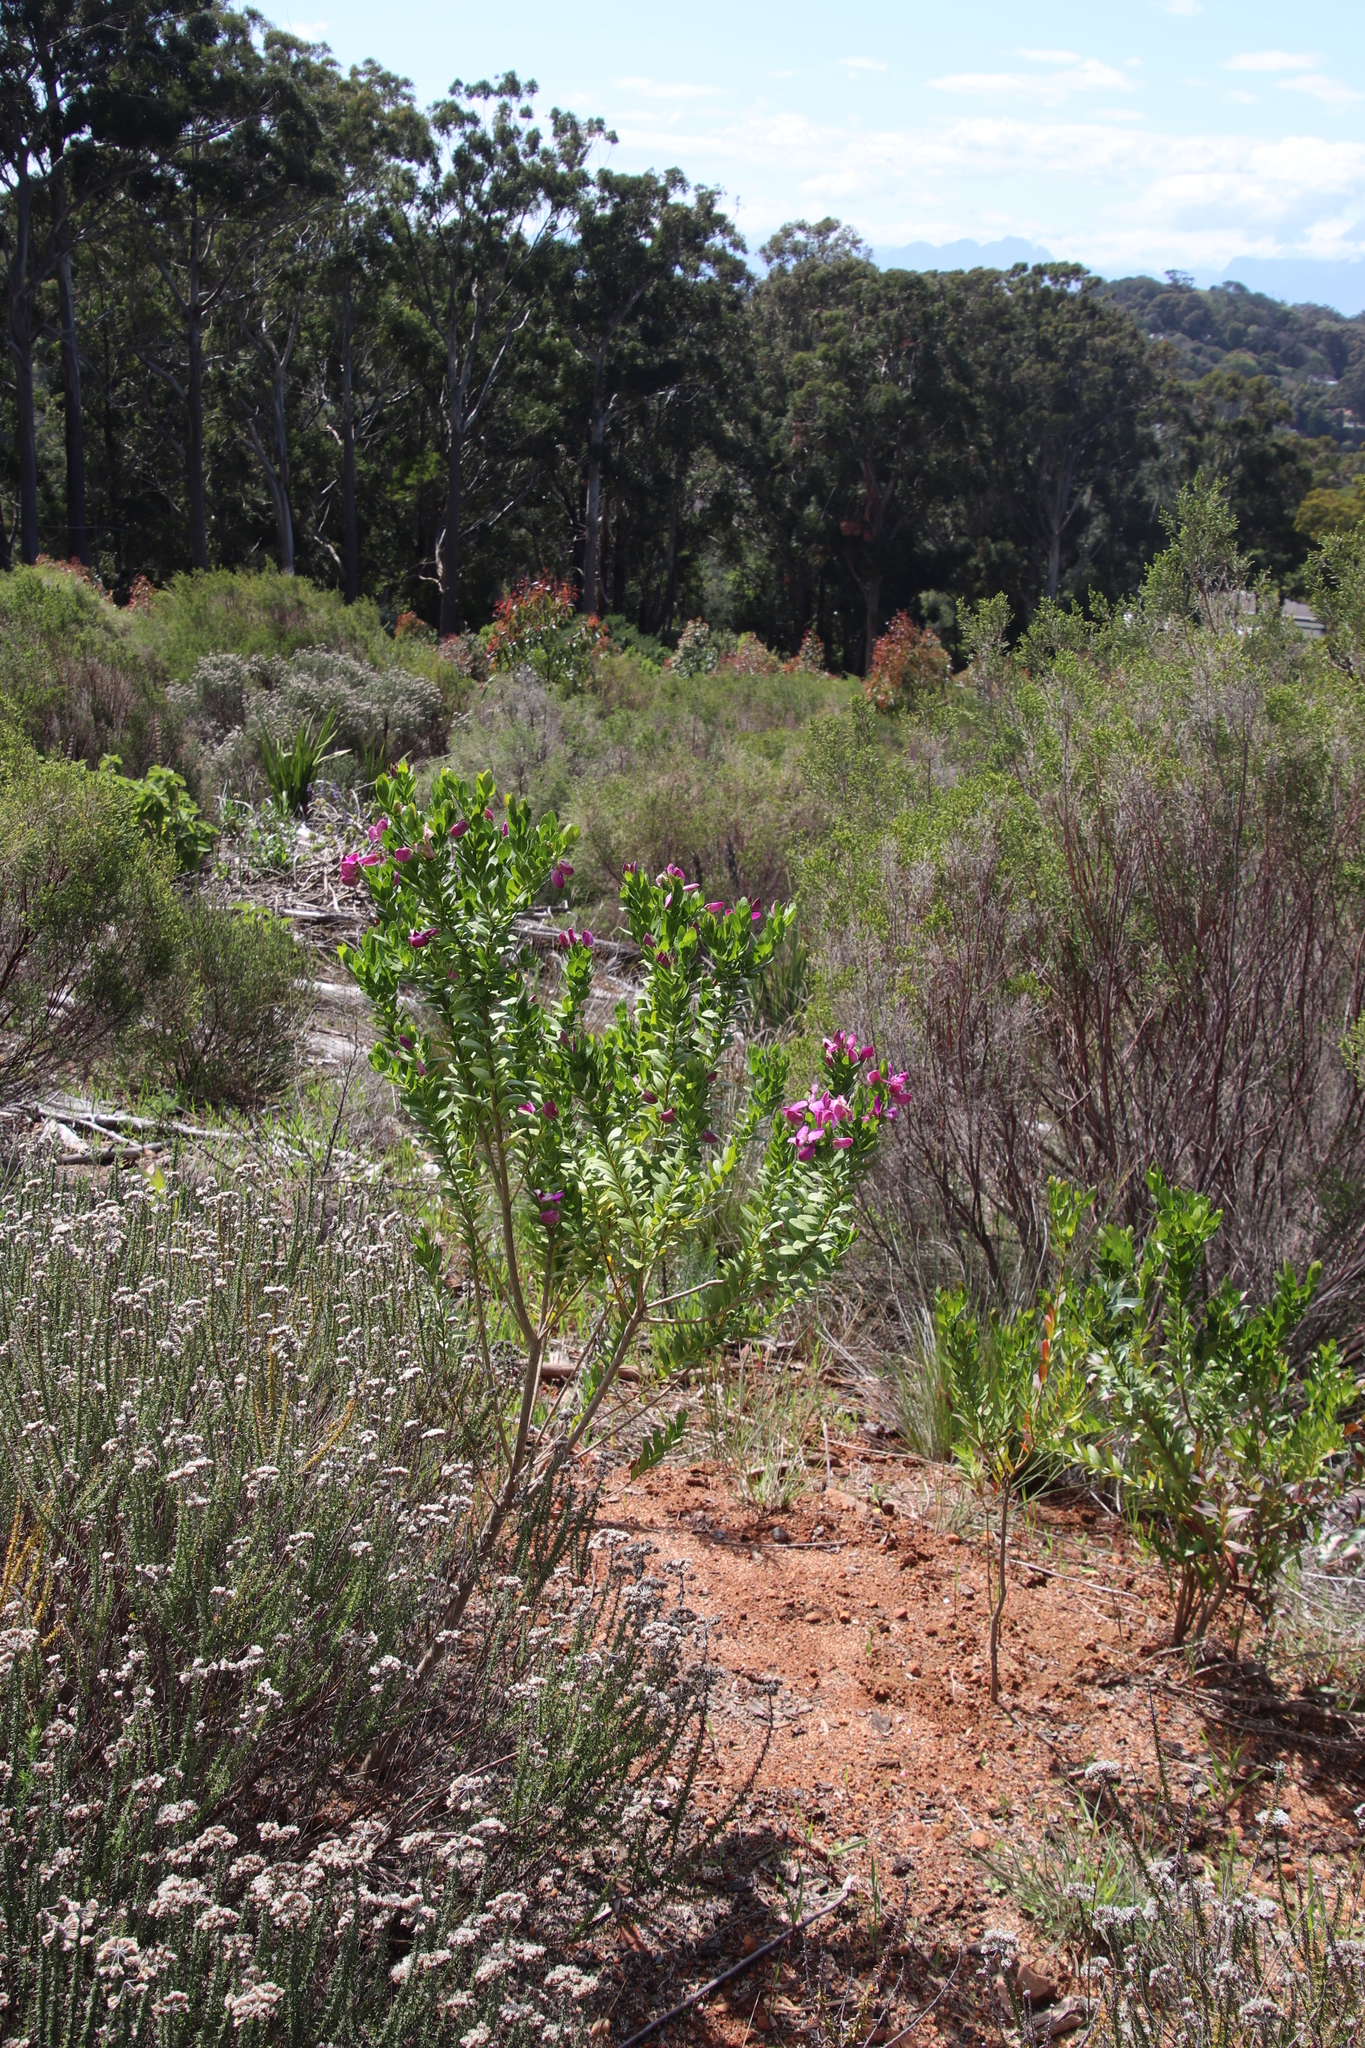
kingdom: Plantae
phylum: Tracheophyta
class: Magnoliopsida
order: Fabales
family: Polygalaceae
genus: Polygala
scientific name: Polygala myrtifolia
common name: Myrtle-leaf milkwort
